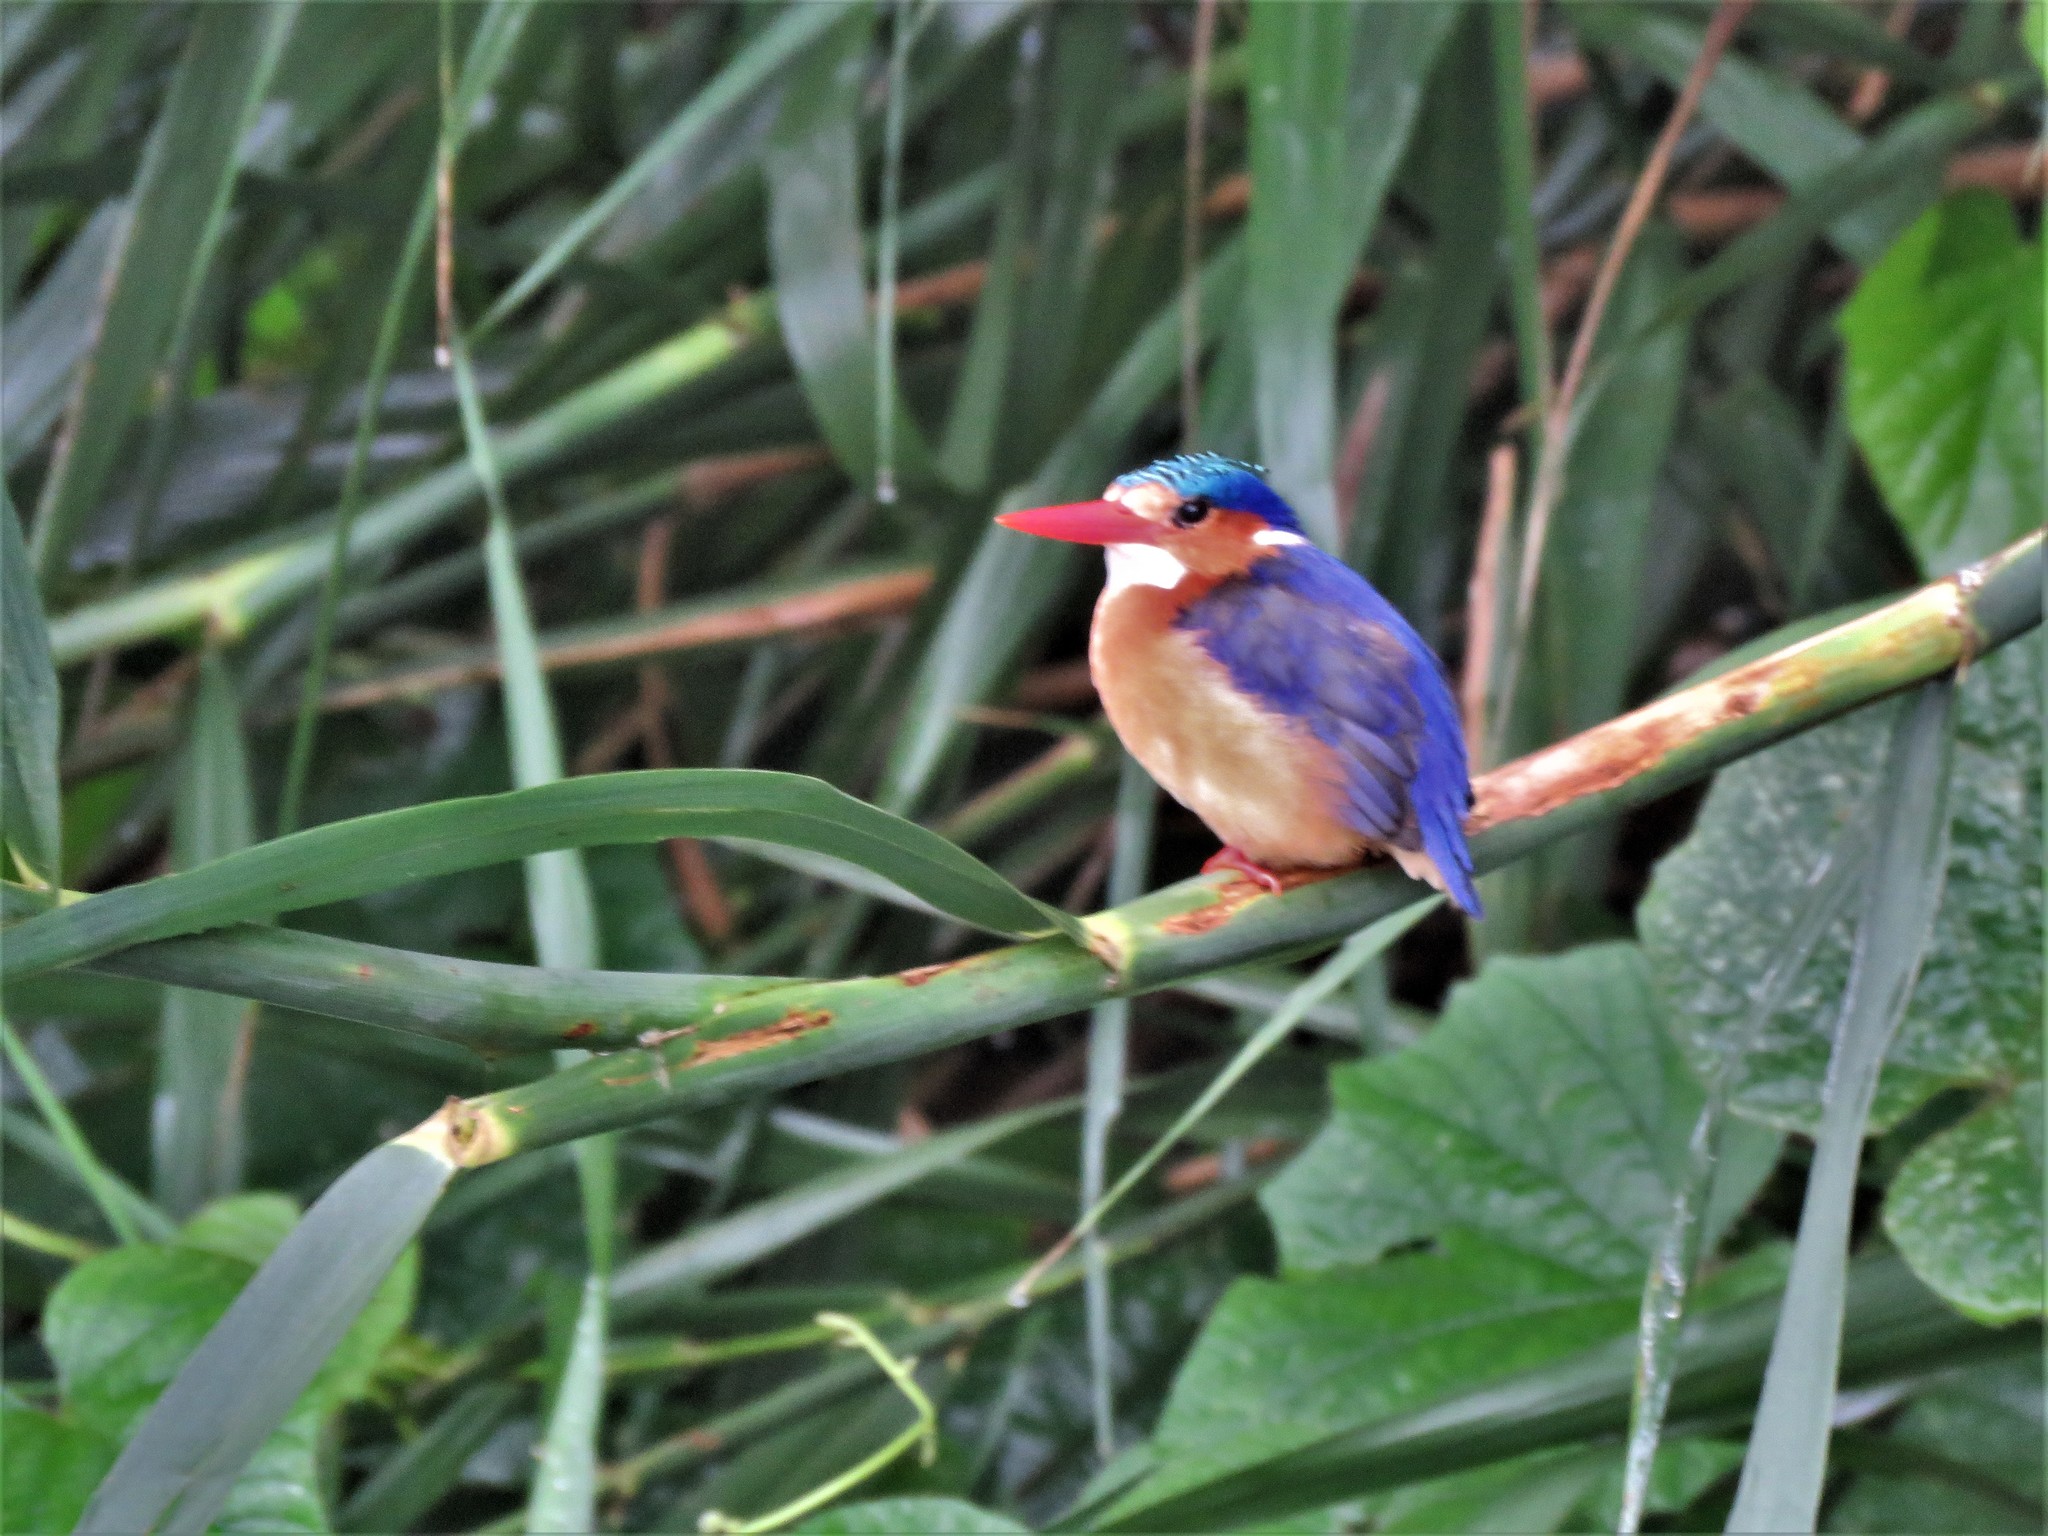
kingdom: Animalia
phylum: Chordata
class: Aves
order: Coraciiformes
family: Alcedinidae
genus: Corythornis
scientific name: Corythornis cristatus
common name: Malachite kingfisher
